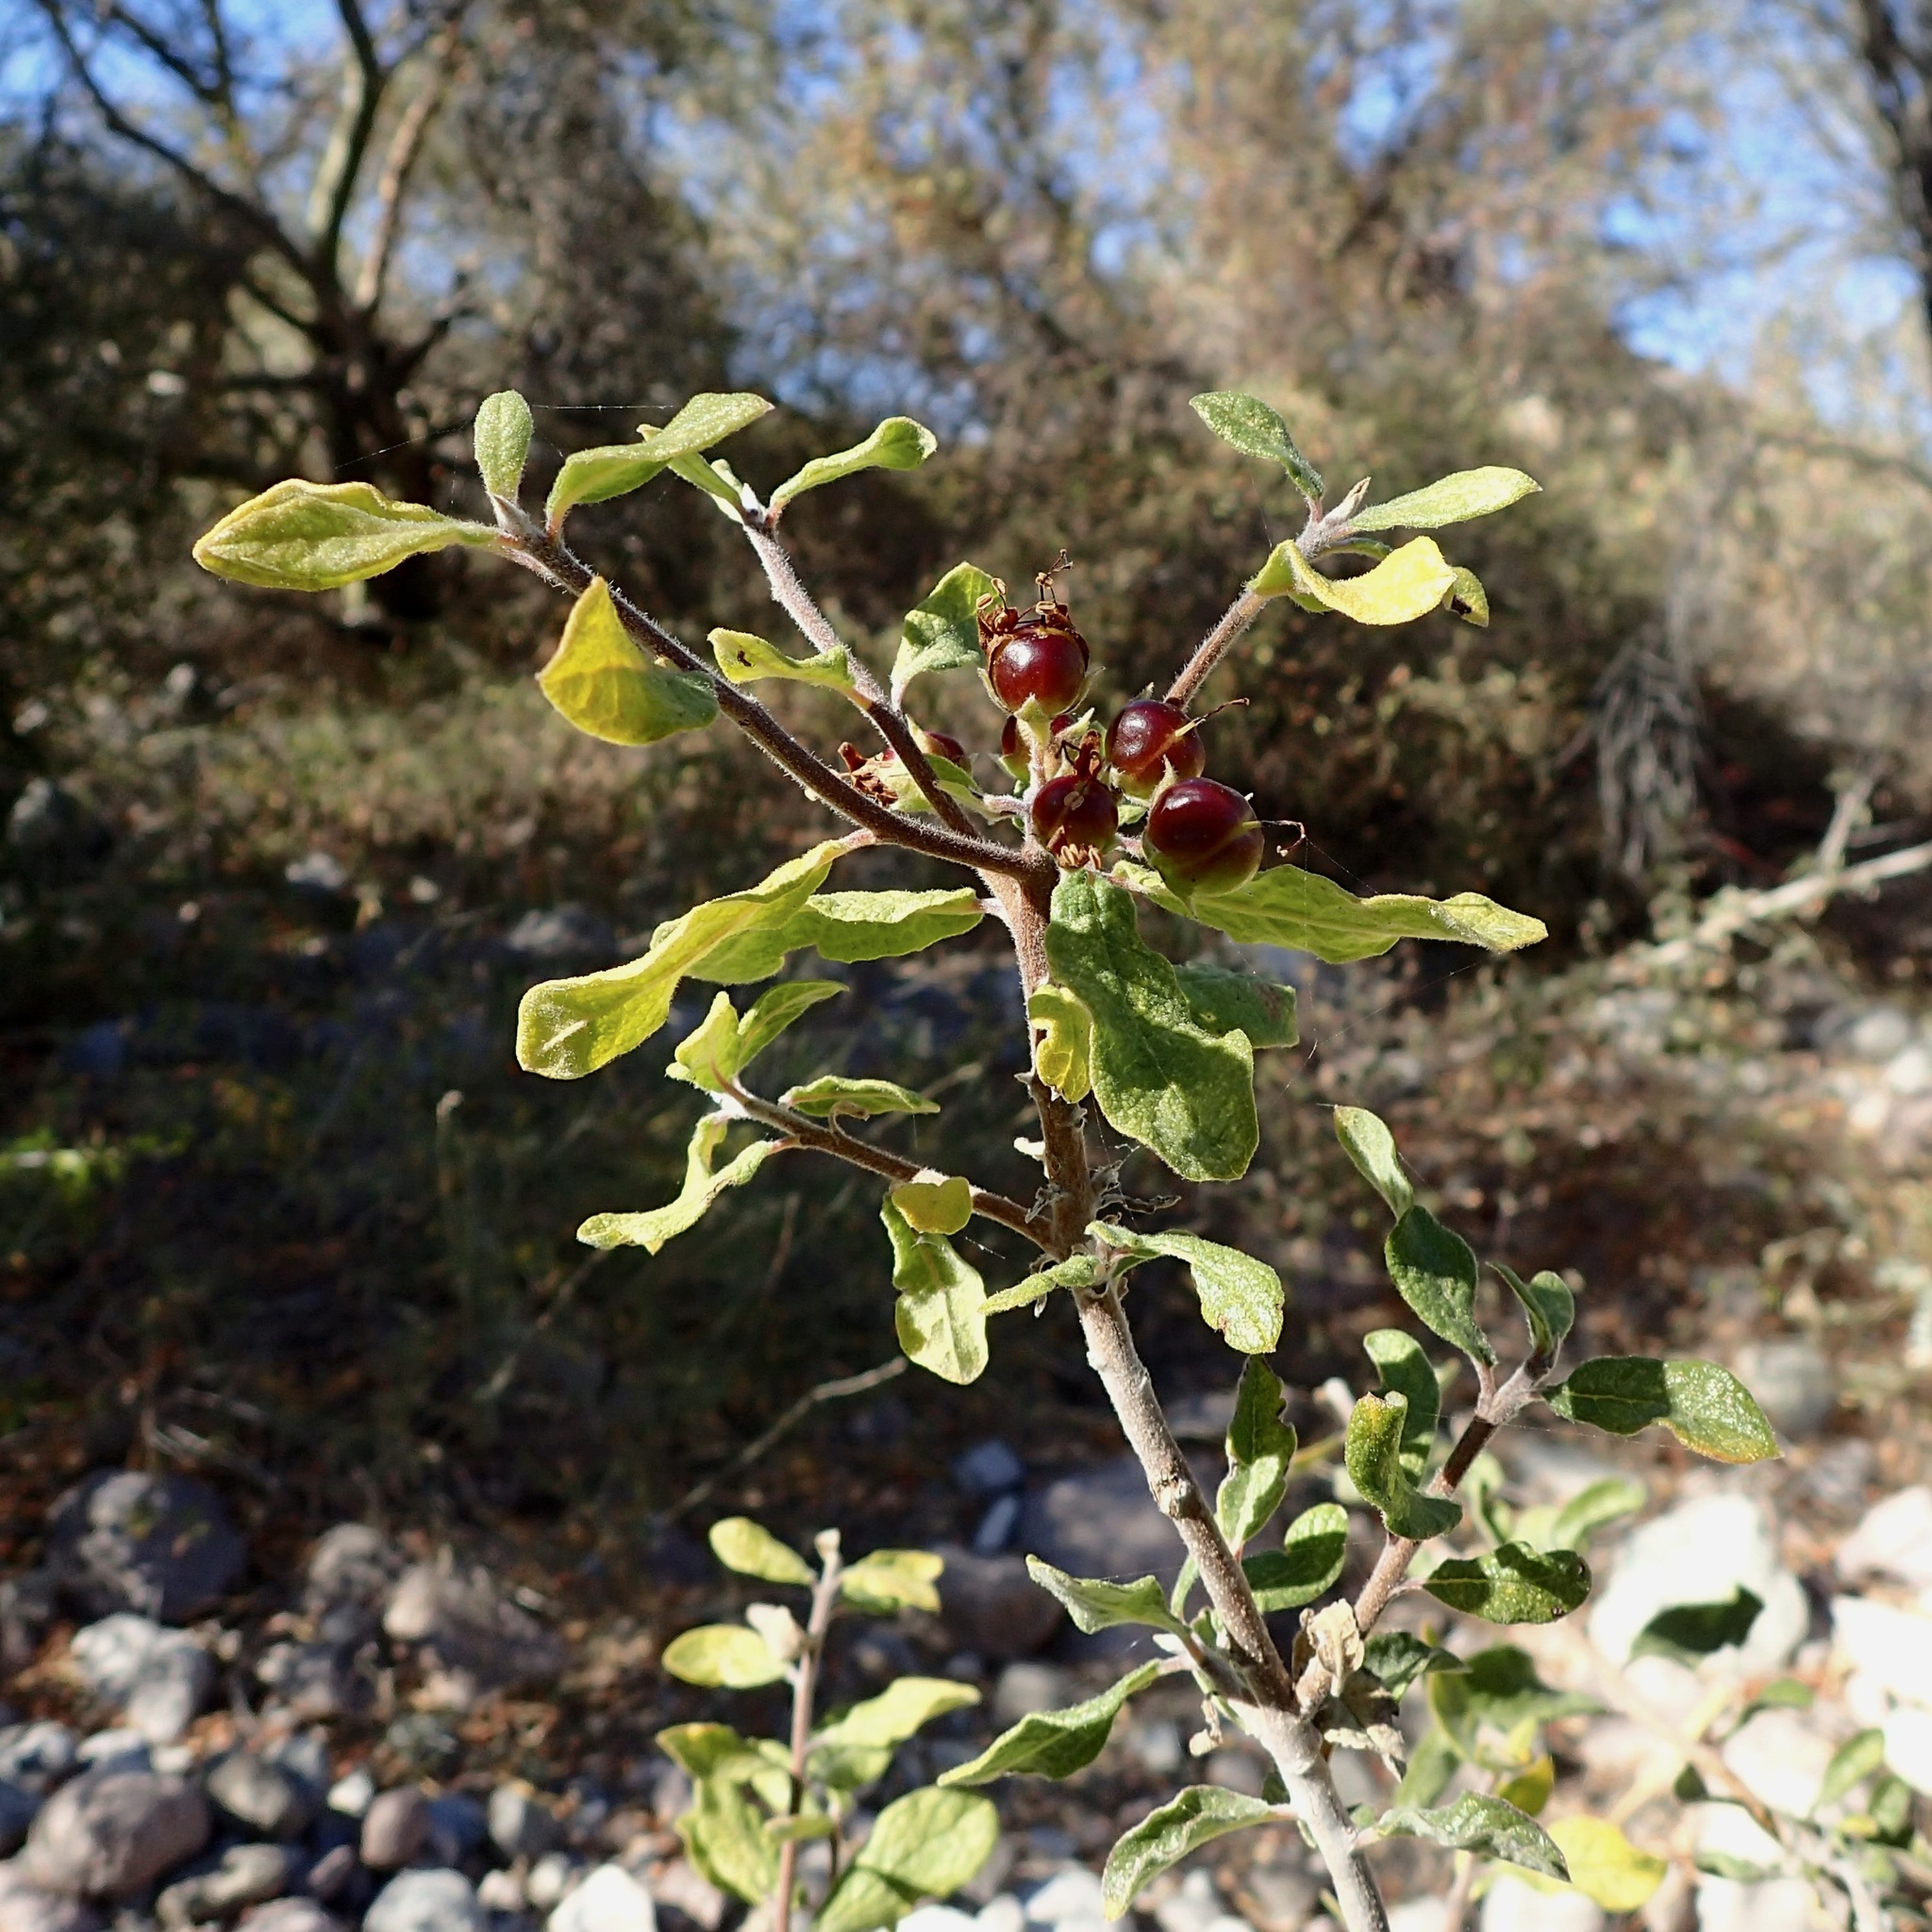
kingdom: Plantae
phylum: Tracheophyta
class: Magnoliopsida
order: Boraginales
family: Ehretiaceae
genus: Bourreria
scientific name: Bourreria sonorae
